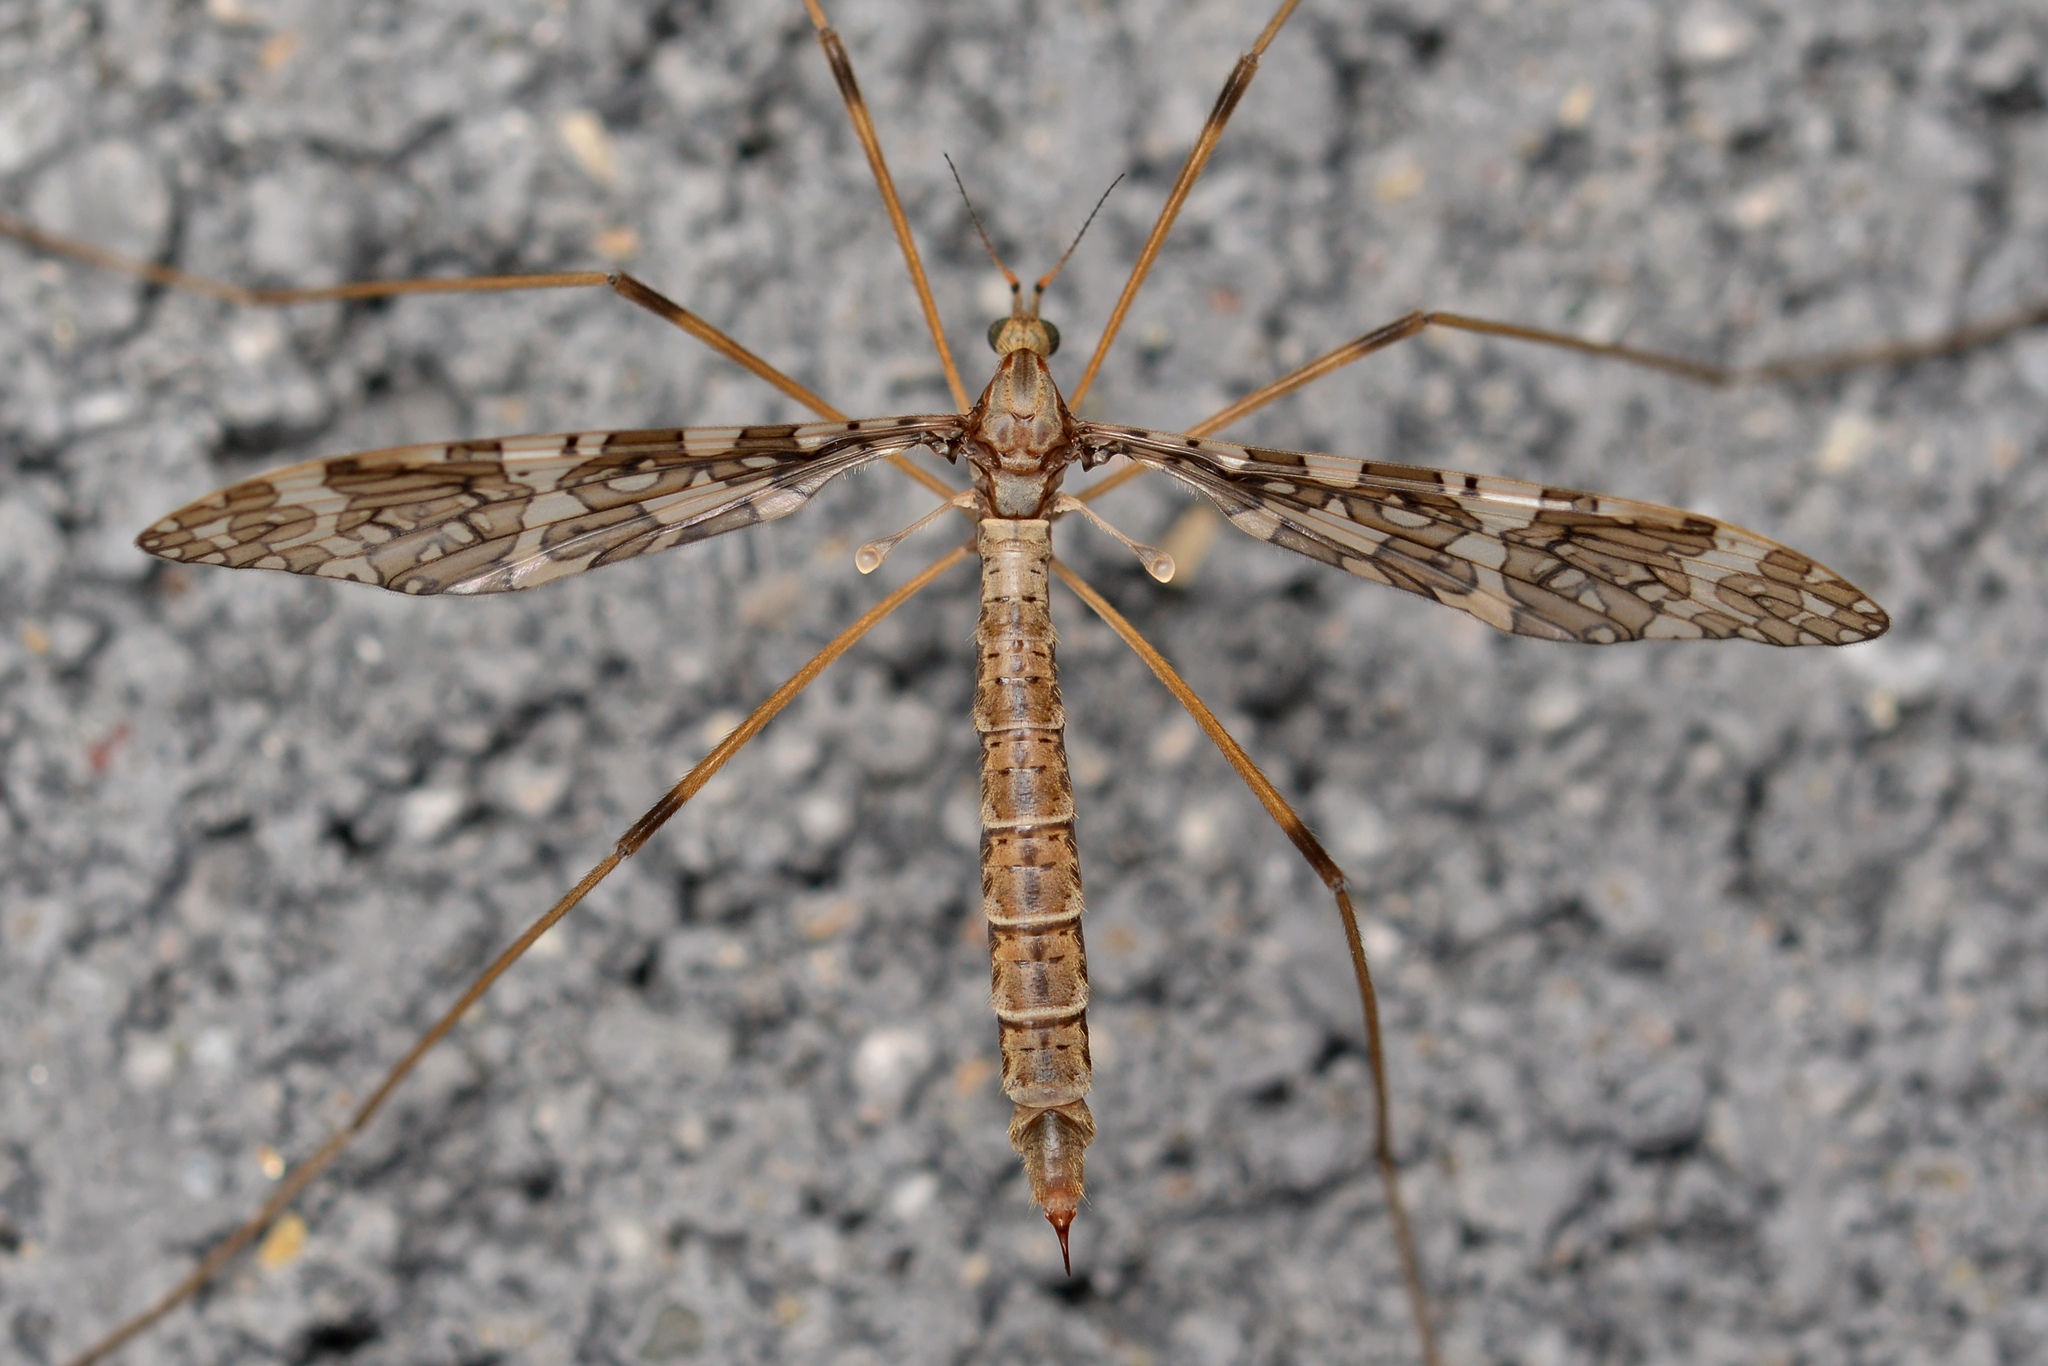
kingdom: Animalia
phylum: Arthropoda
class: Insecta
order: Diptera
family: Limoniidae
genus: Epiphragma
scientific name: Epiphragma fasciapenne
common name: Band-winged crane fly
